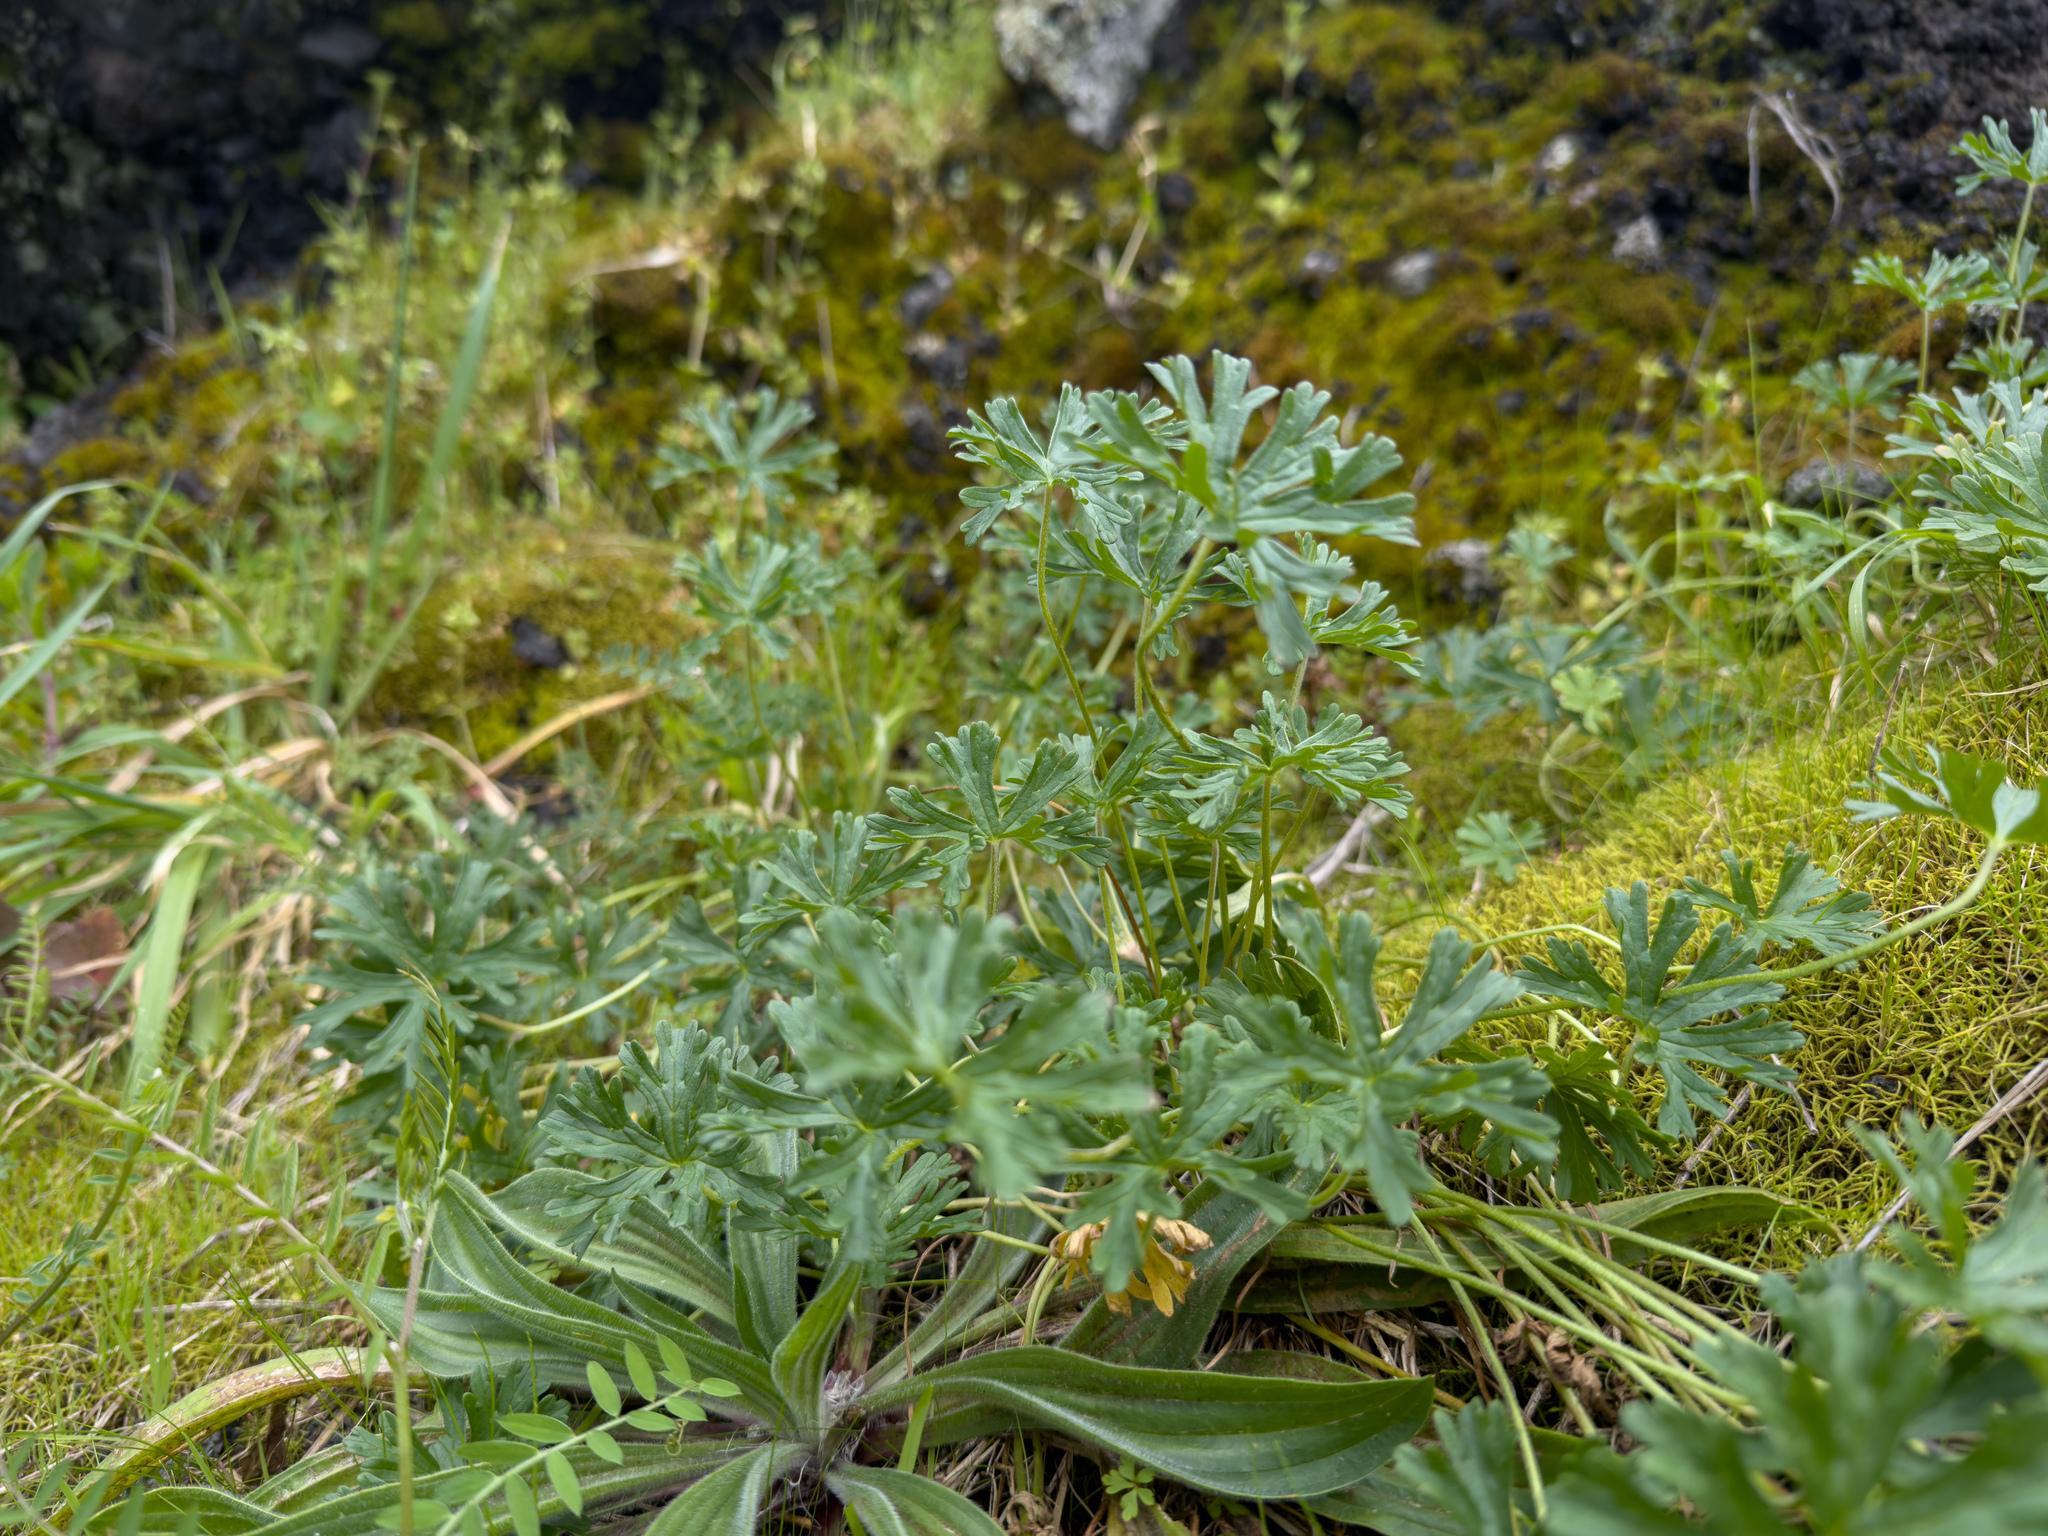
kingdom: Plantae
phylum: Tracheophyta
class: Magnoliopsida
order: Geraniales
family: Geraniaceae
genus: Geranium
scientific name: Geranium retrorsum
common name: New zealand geranium
